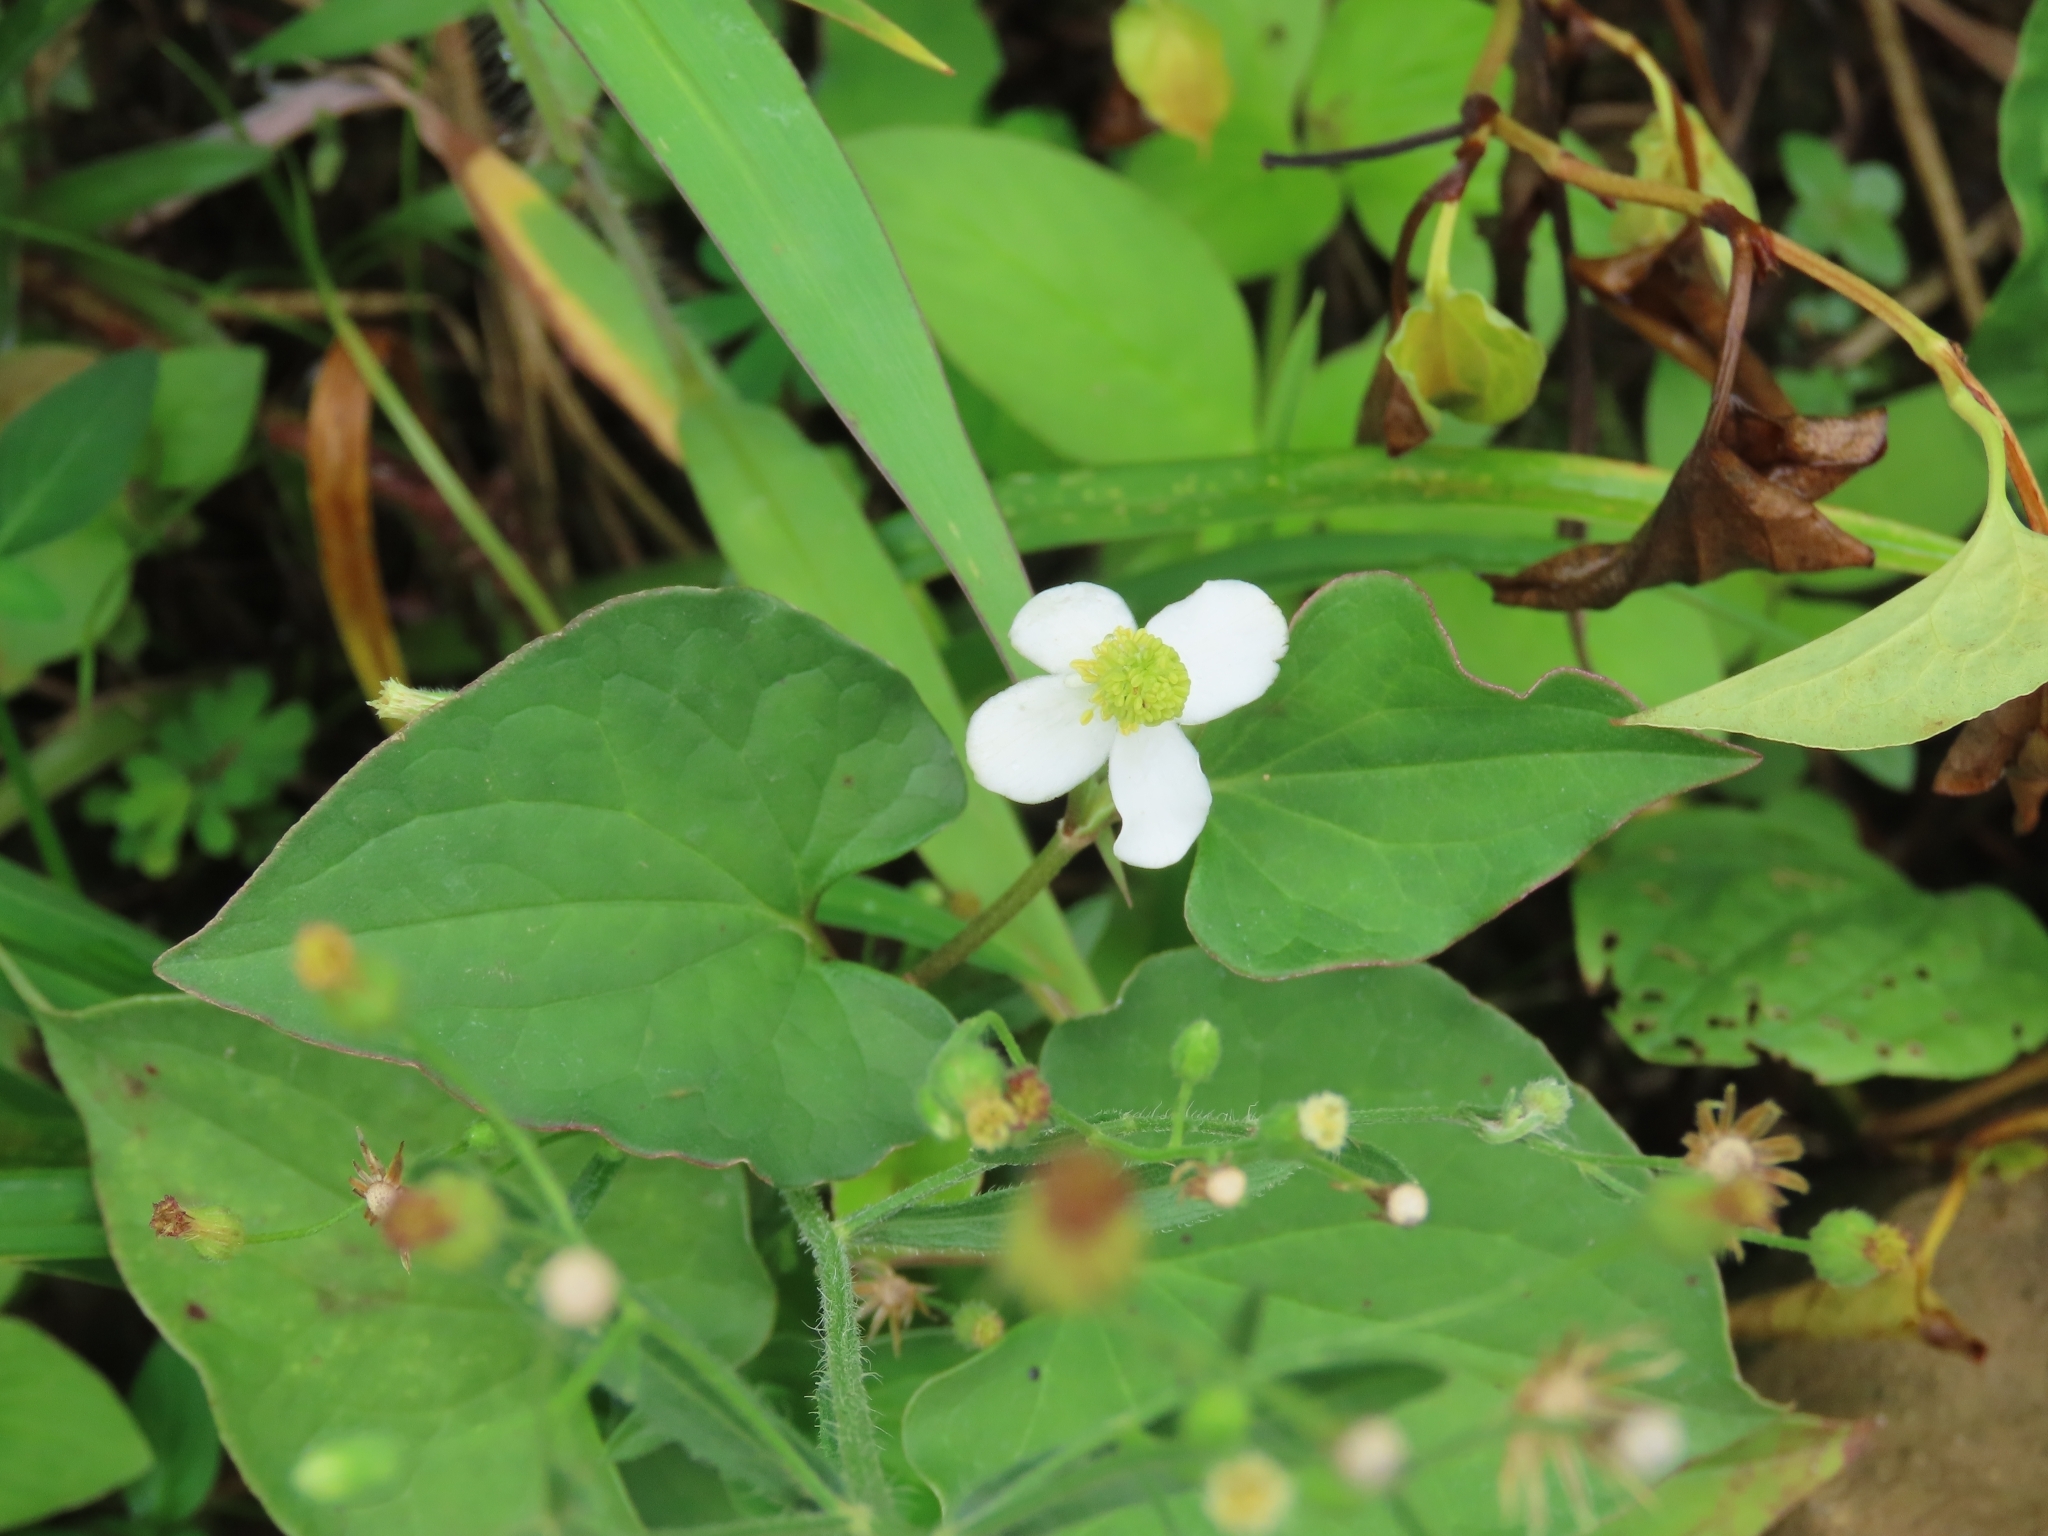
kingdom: Plantae
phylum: Tracheophyta
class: Magnoliopsida
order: Piperales
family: Saururaceae
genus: Houttuynia
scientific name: Houttuynia cordata
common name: Chameleon
